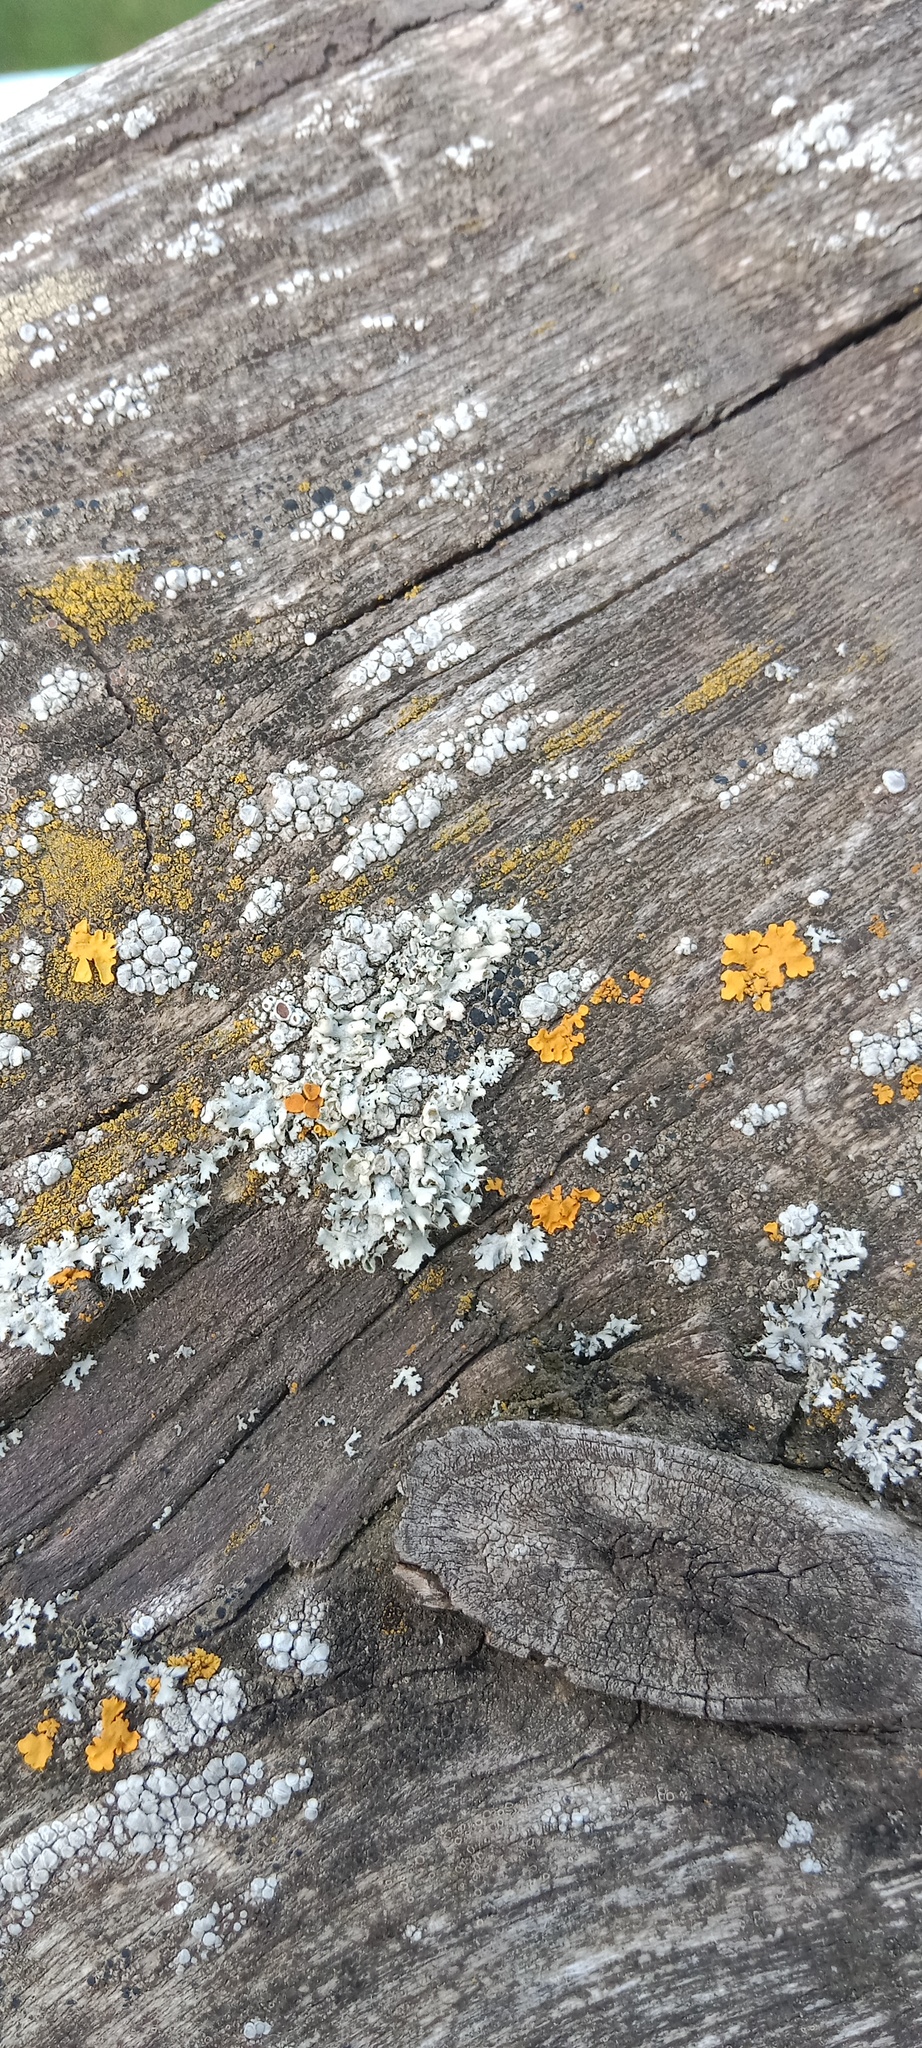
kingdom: Fungi
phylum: Ascomycota
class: Lecanoromycetes
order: Caliciales
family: Physciaceae
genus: Physcia
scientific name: Physcia adscendens
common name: Hooded rosette lichen
